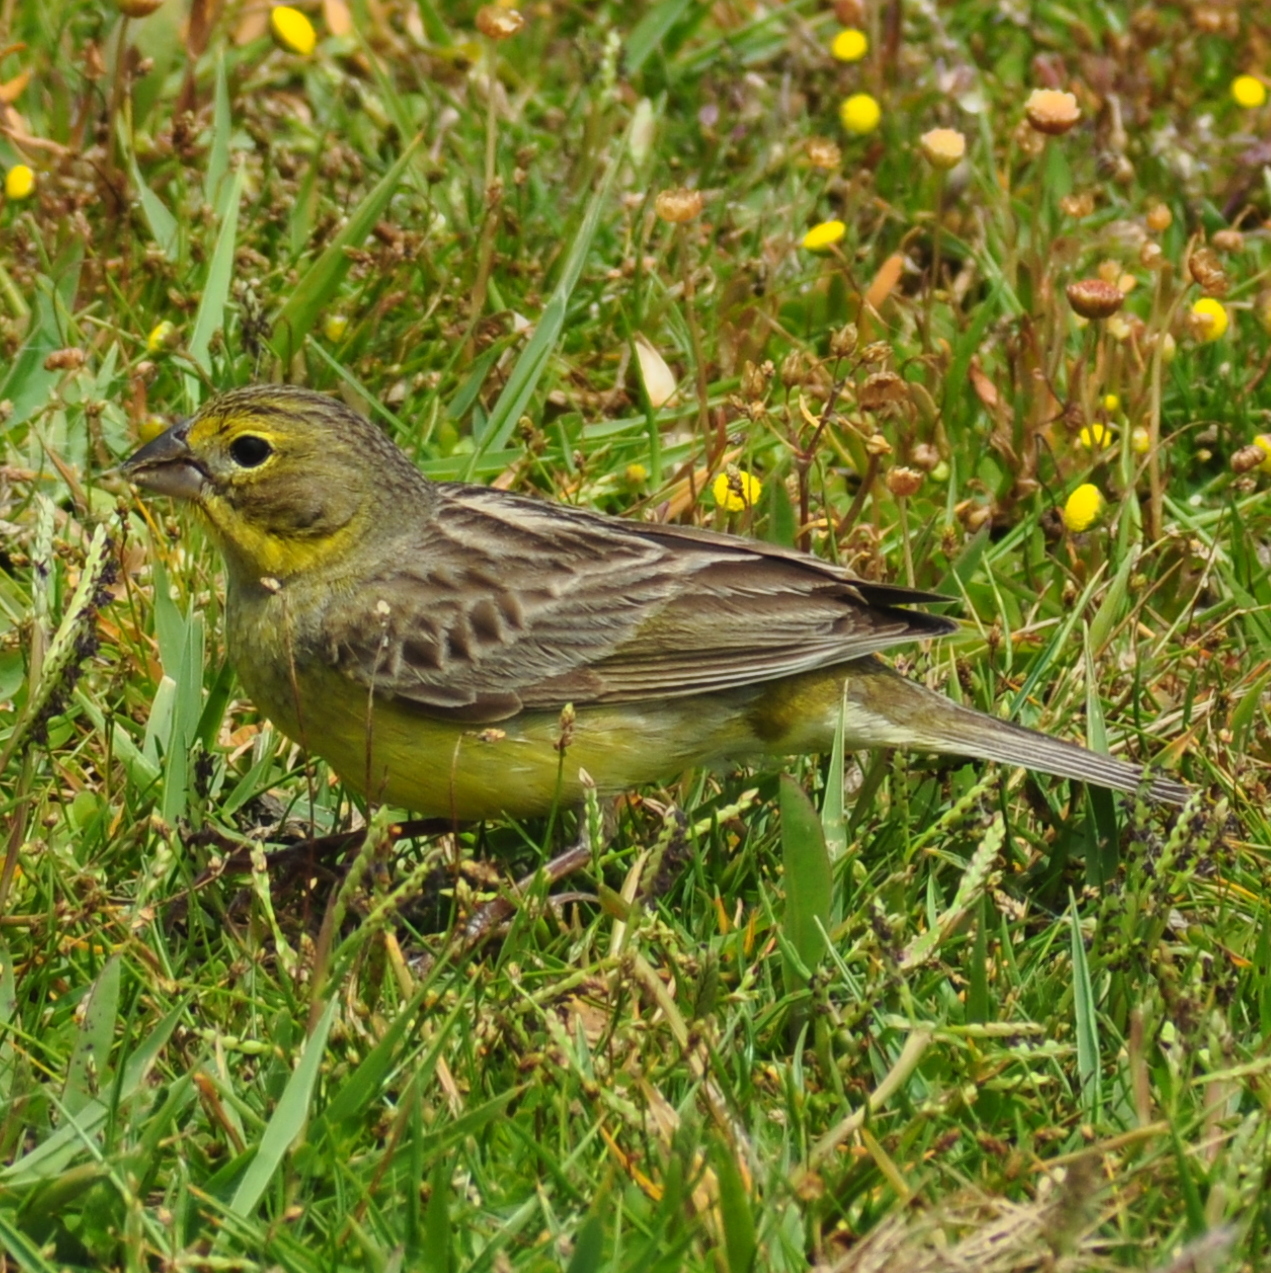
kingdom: Animalia
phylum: Chordata
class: Aves
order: Passeriformes
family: Thraupidae
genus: Sicalis
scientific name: Sicalis luteola
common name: Grassland yellow-finch
